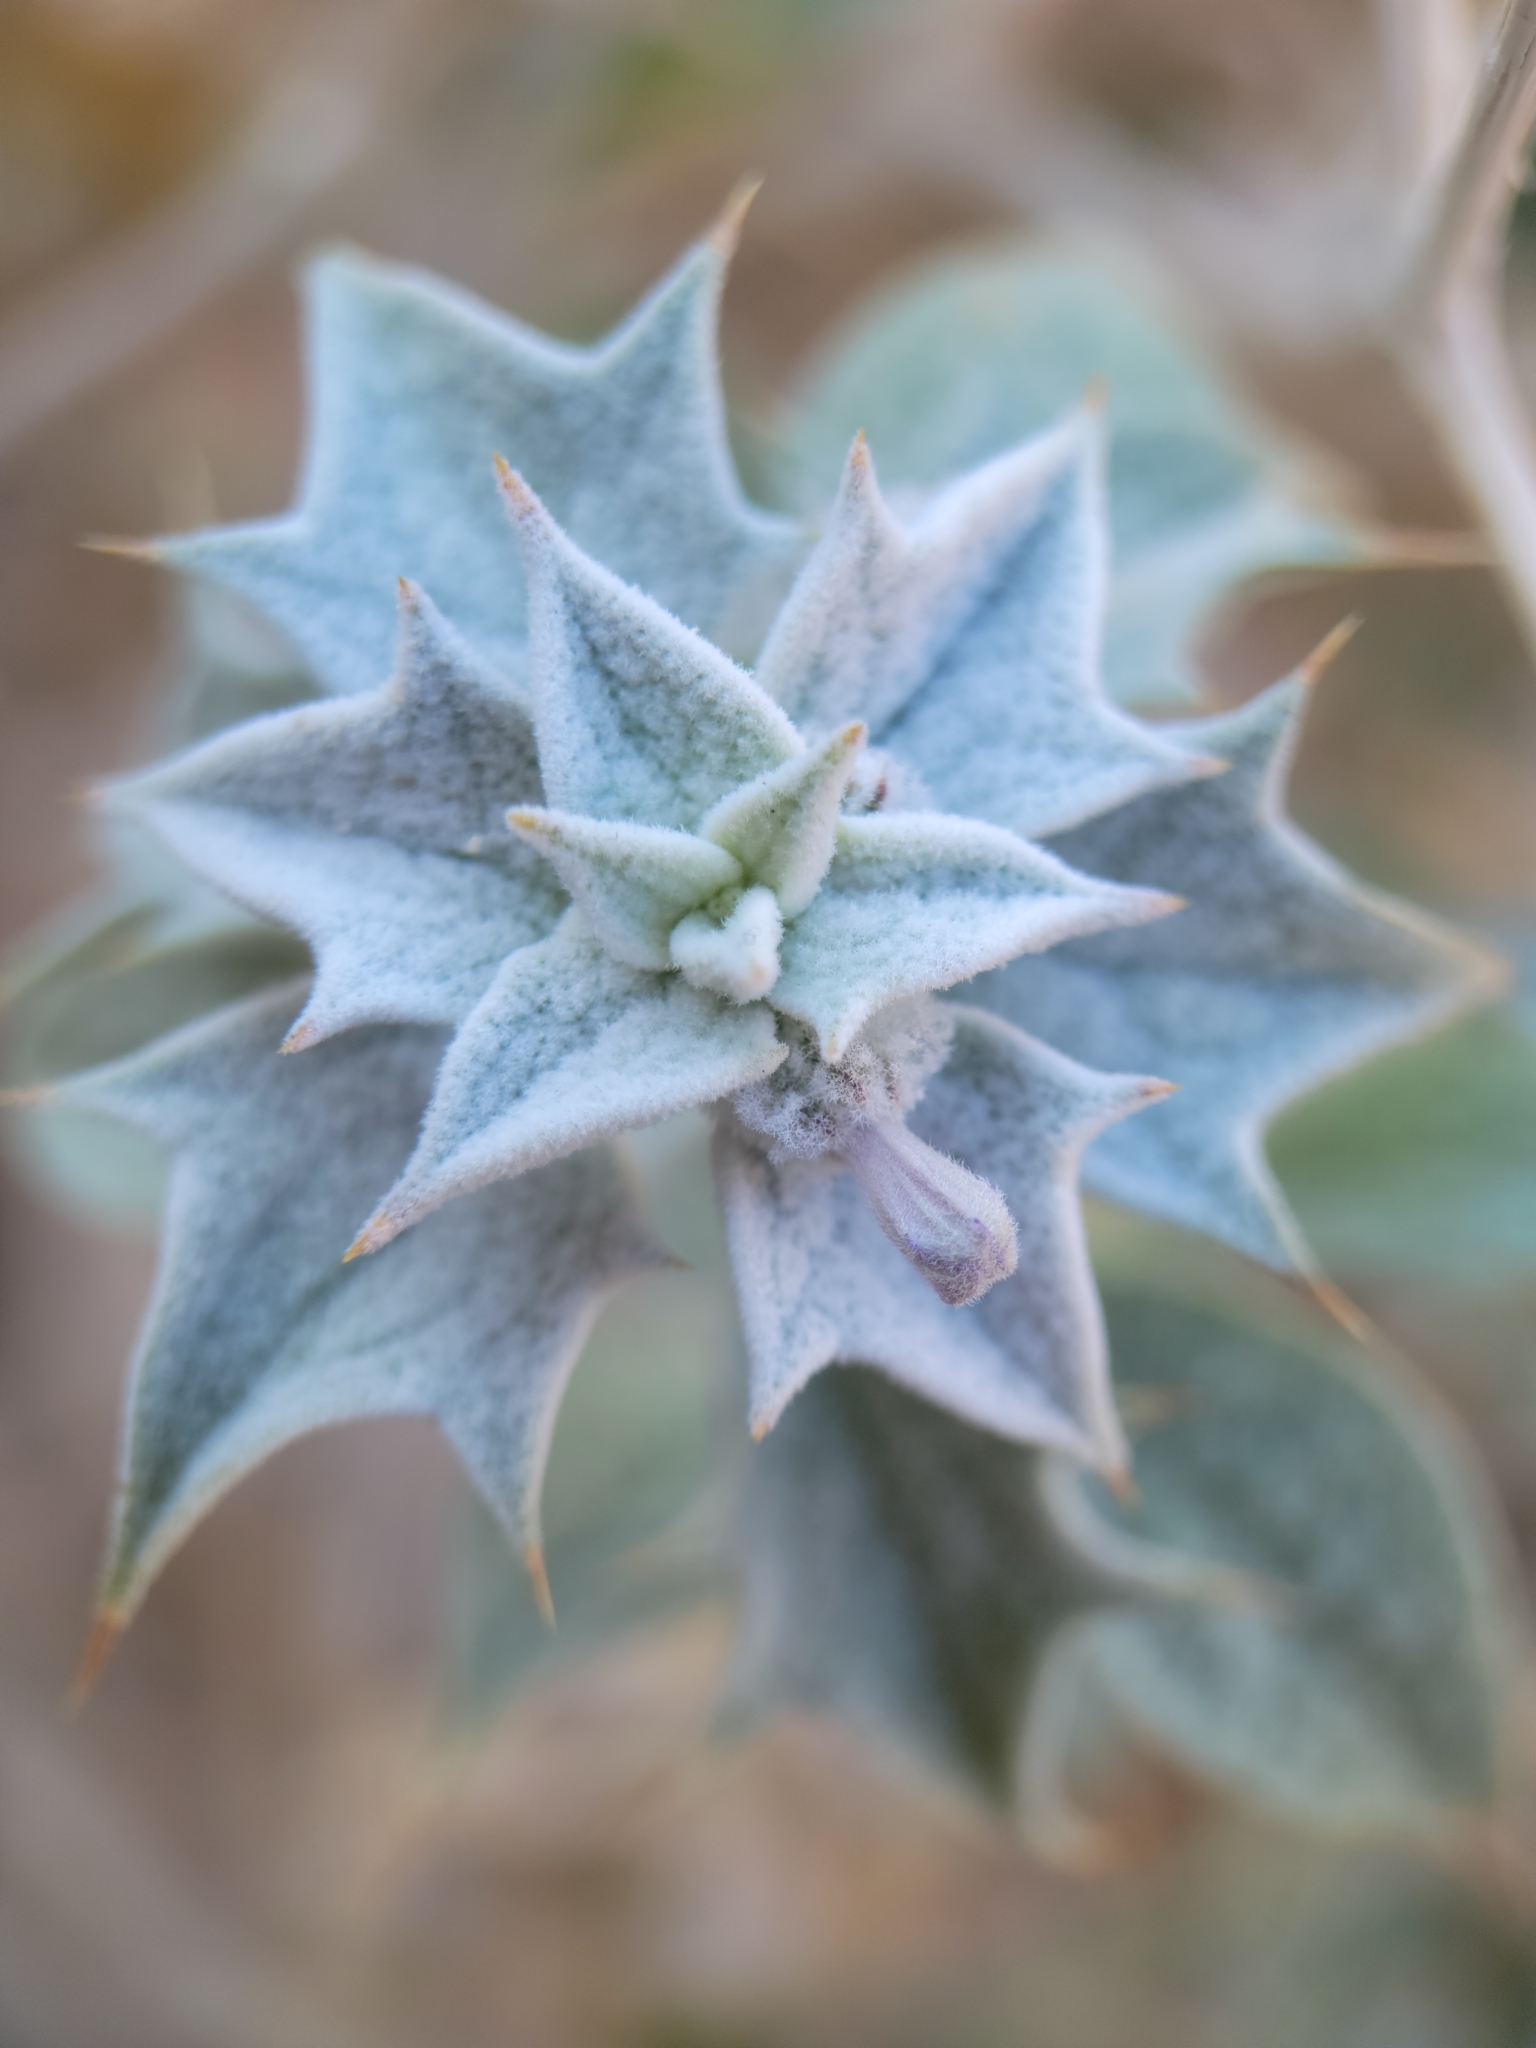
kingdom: Plantae
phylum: Tracheophyta
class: Magnoliopsida
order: Lamiales
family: Lamiaceae
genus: Salvia
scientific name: Salvia funerea
